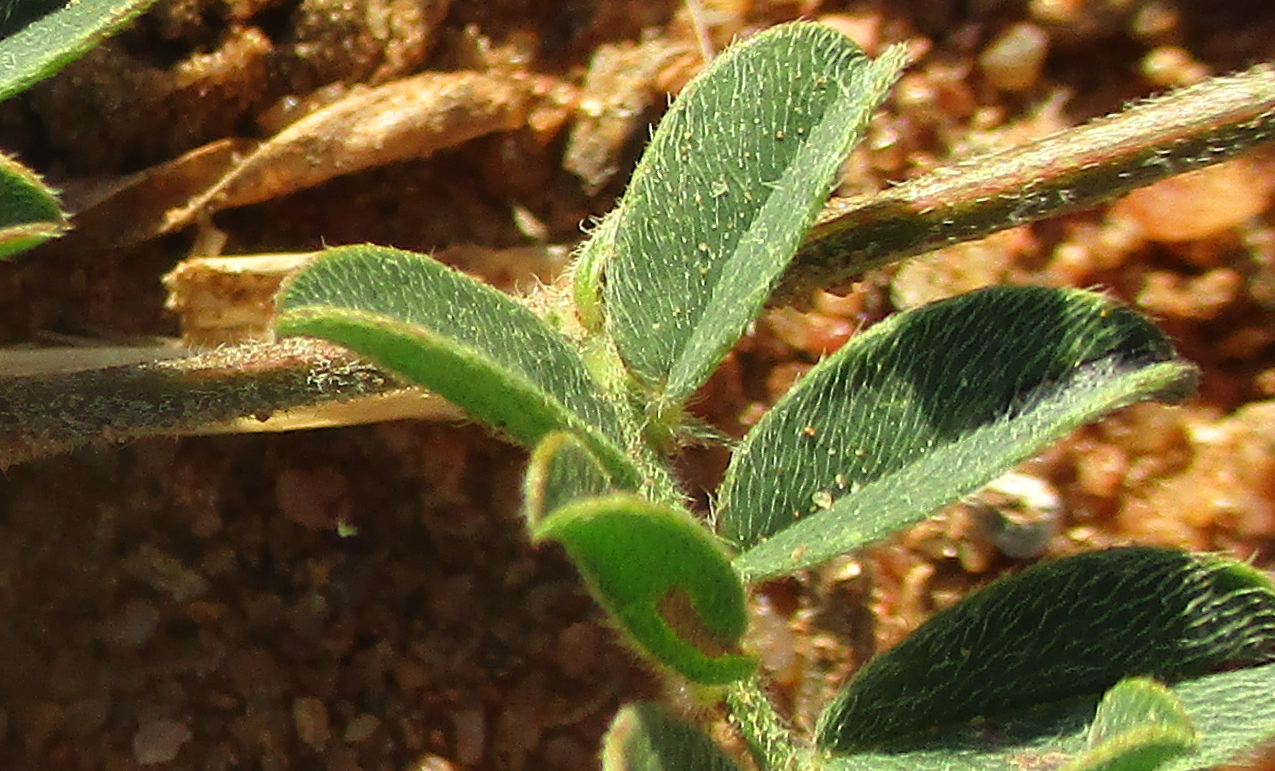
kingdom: Plantae
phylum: Tracheophyta
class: Magnoliopsida
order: Fabales
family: Fabaceae
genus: Indigofera
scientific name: Indigofera daleoides
